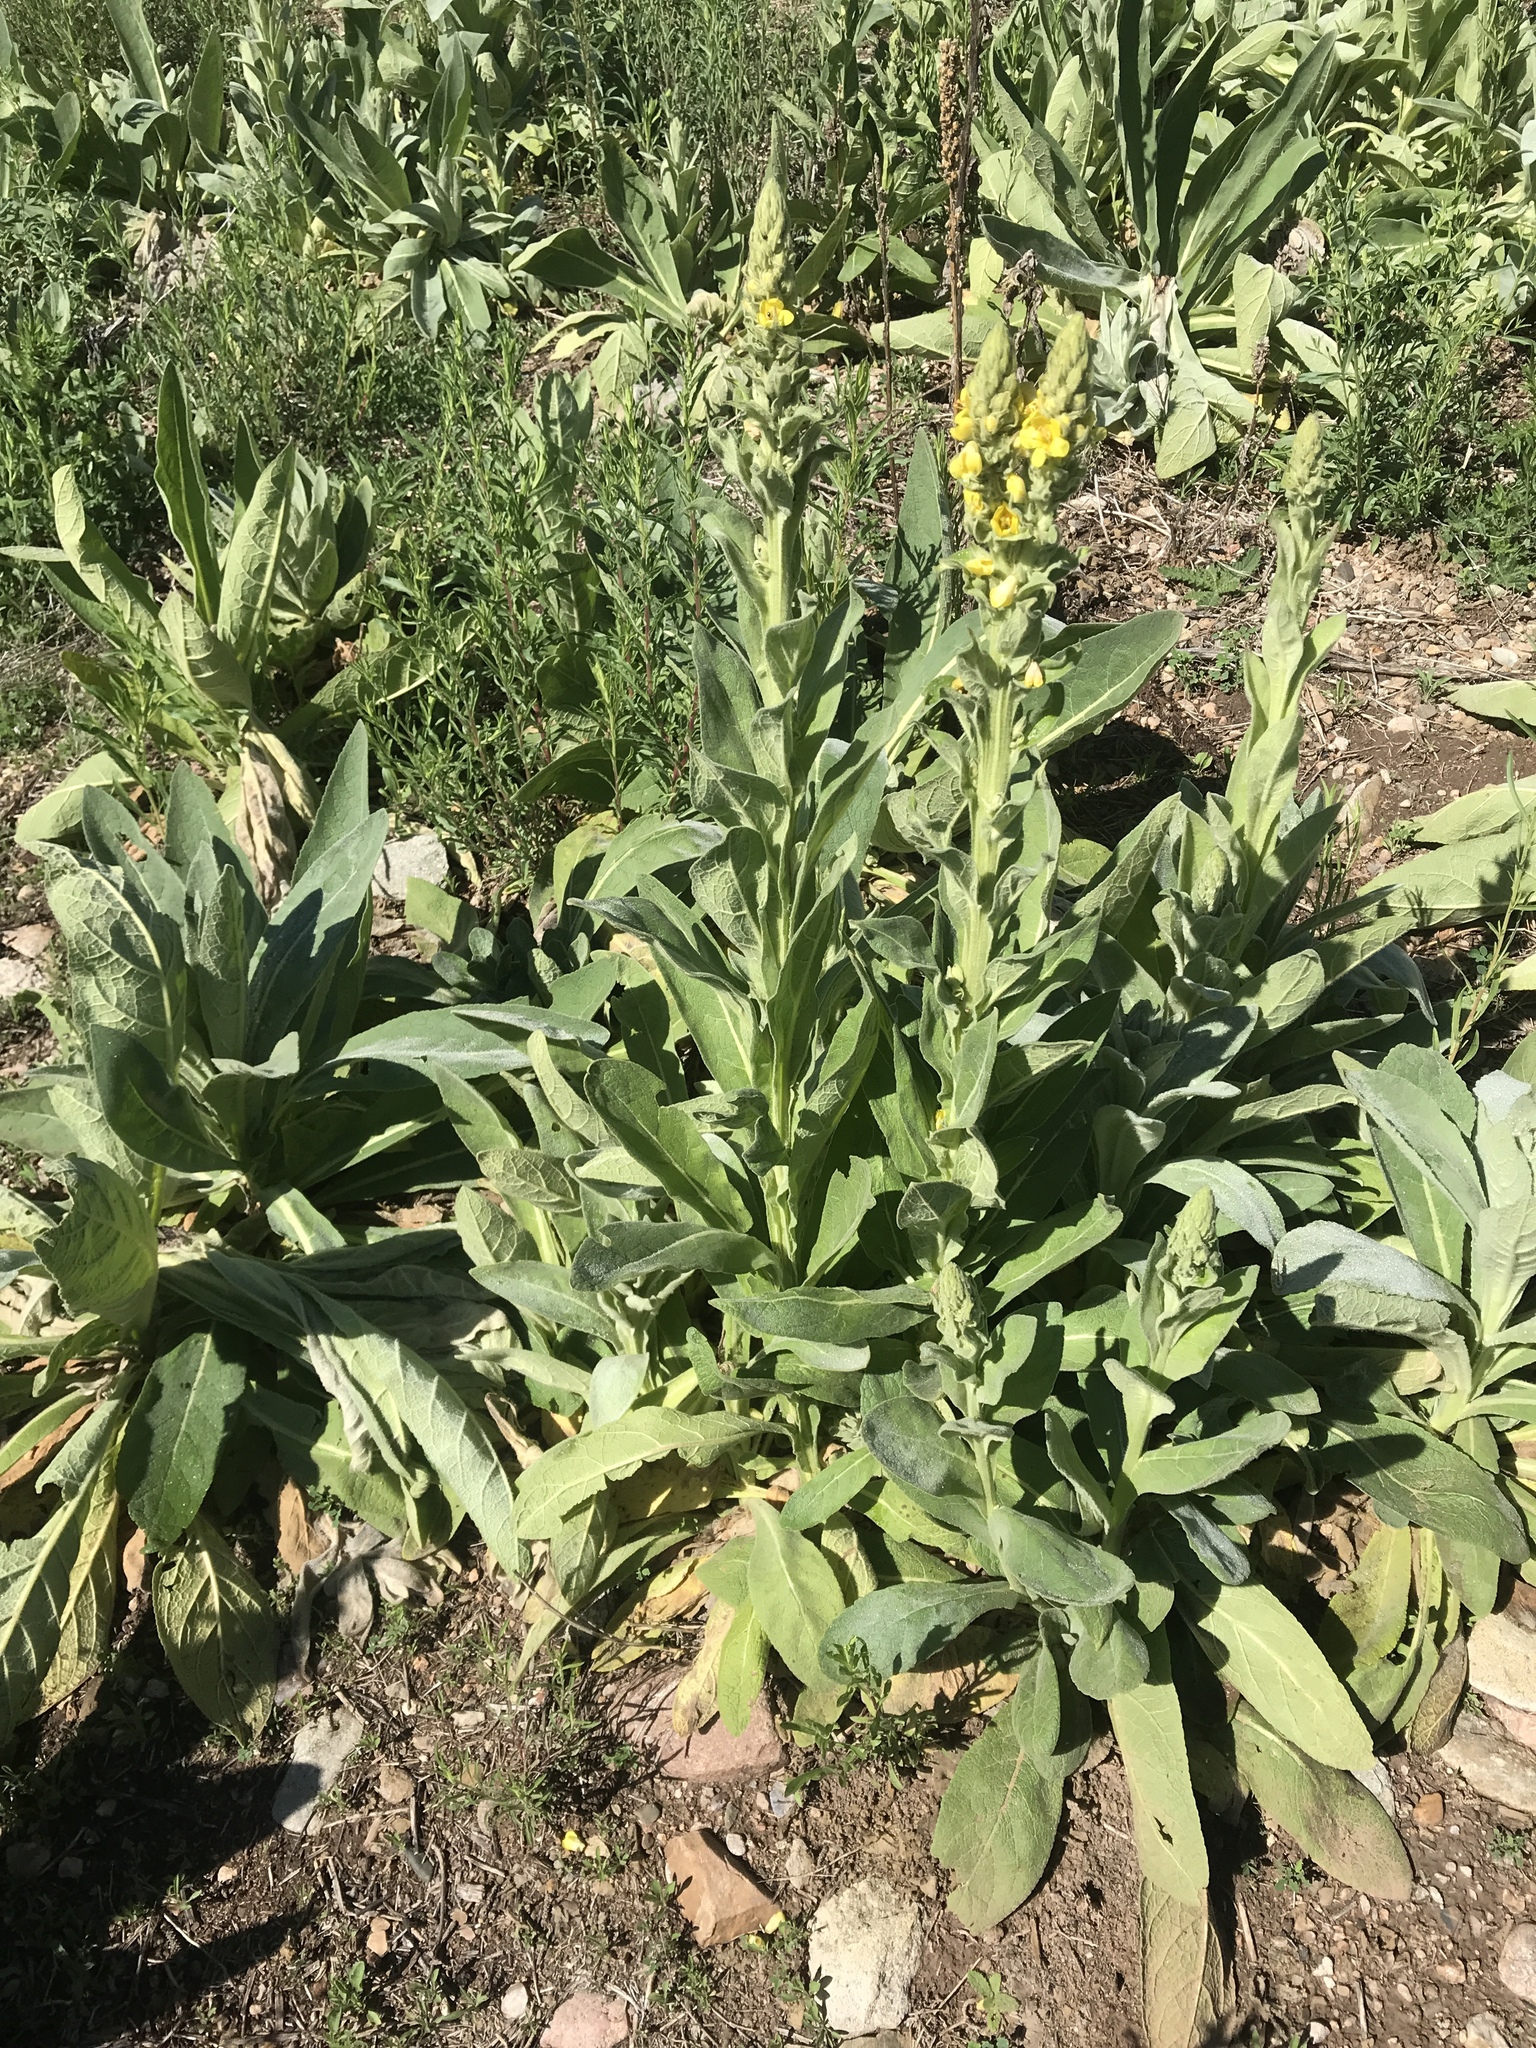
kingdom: Plantae
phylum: Tracheophyta
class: Magnoliopsida
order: Lamiales
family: Scrophulariaceae
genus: Verbascum
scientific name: Verbascum thapsus
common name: Common mullein
